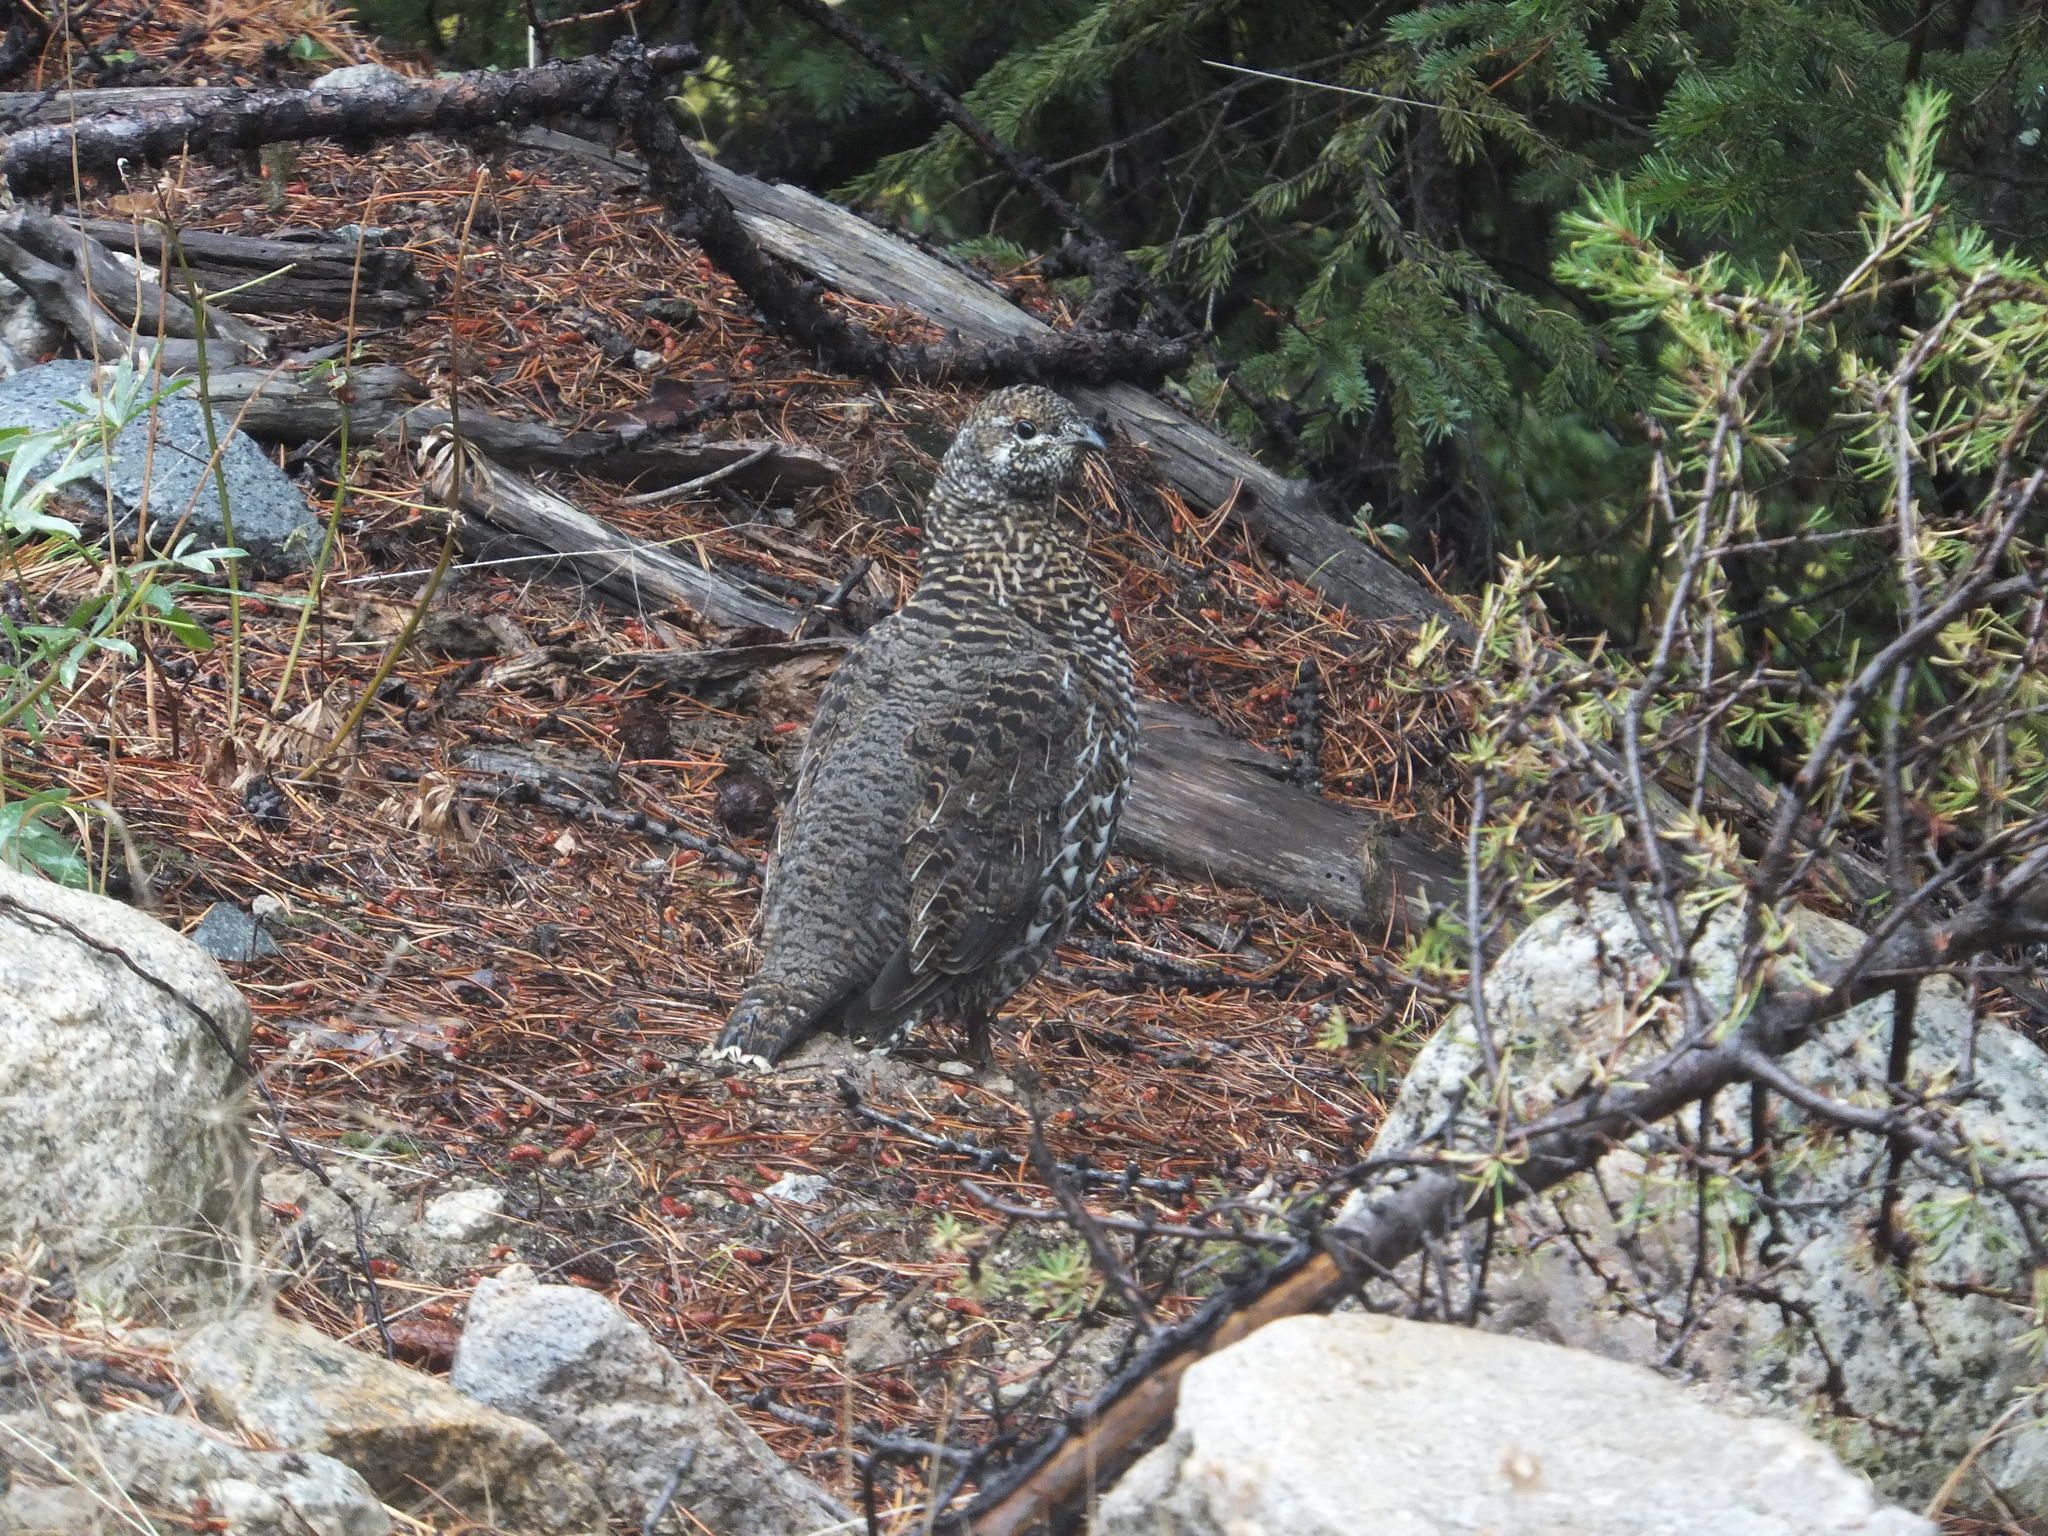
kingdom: Animalia
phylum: Chordata
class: Aves
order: Galliformes
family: Phasianidae
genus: Canachites
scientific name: Canachites canadensis
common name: Spruce grouse
